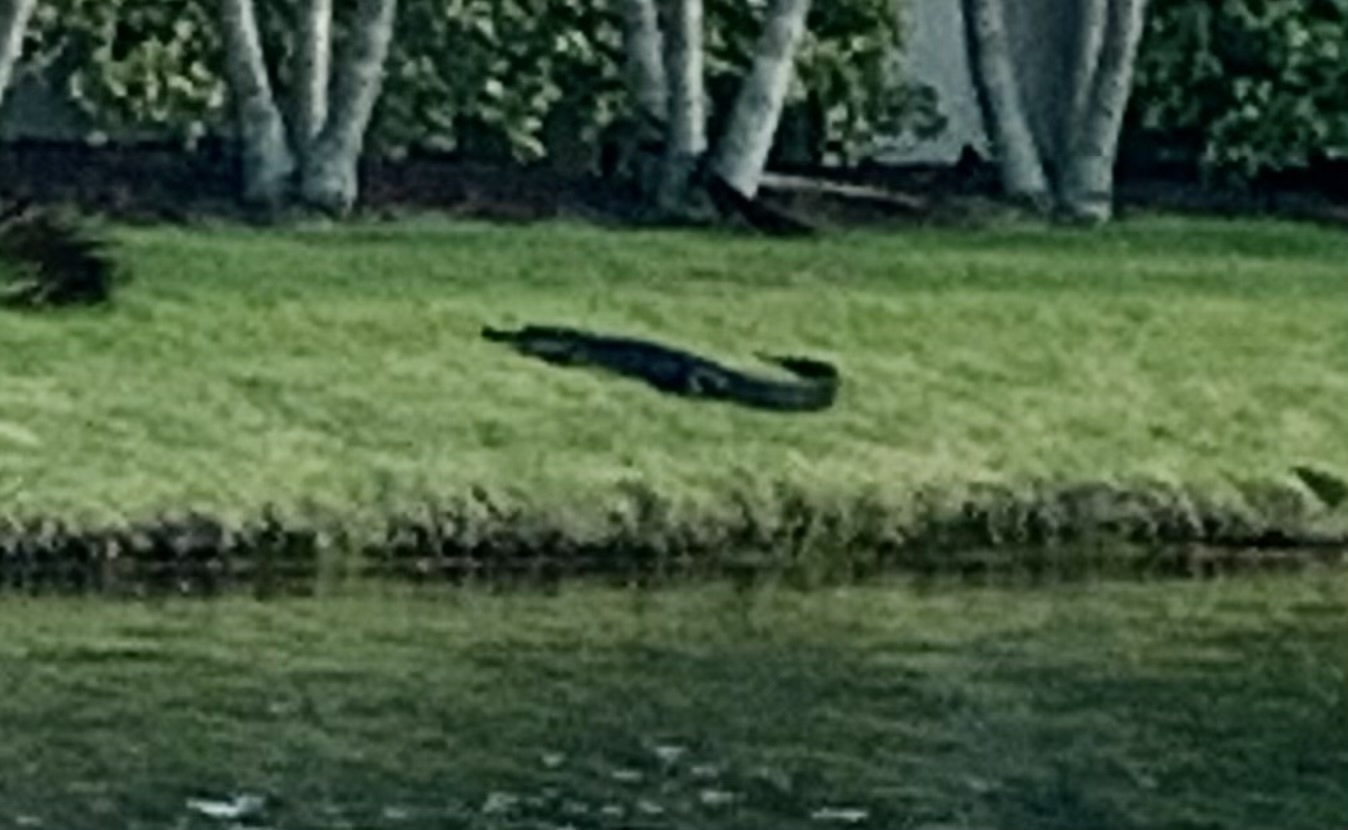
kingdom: Animalia
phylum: Chordata
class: Crocodylia
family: Alligatoridae
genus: Alligator
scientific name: Alligator mississippiensis
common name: American alligator
